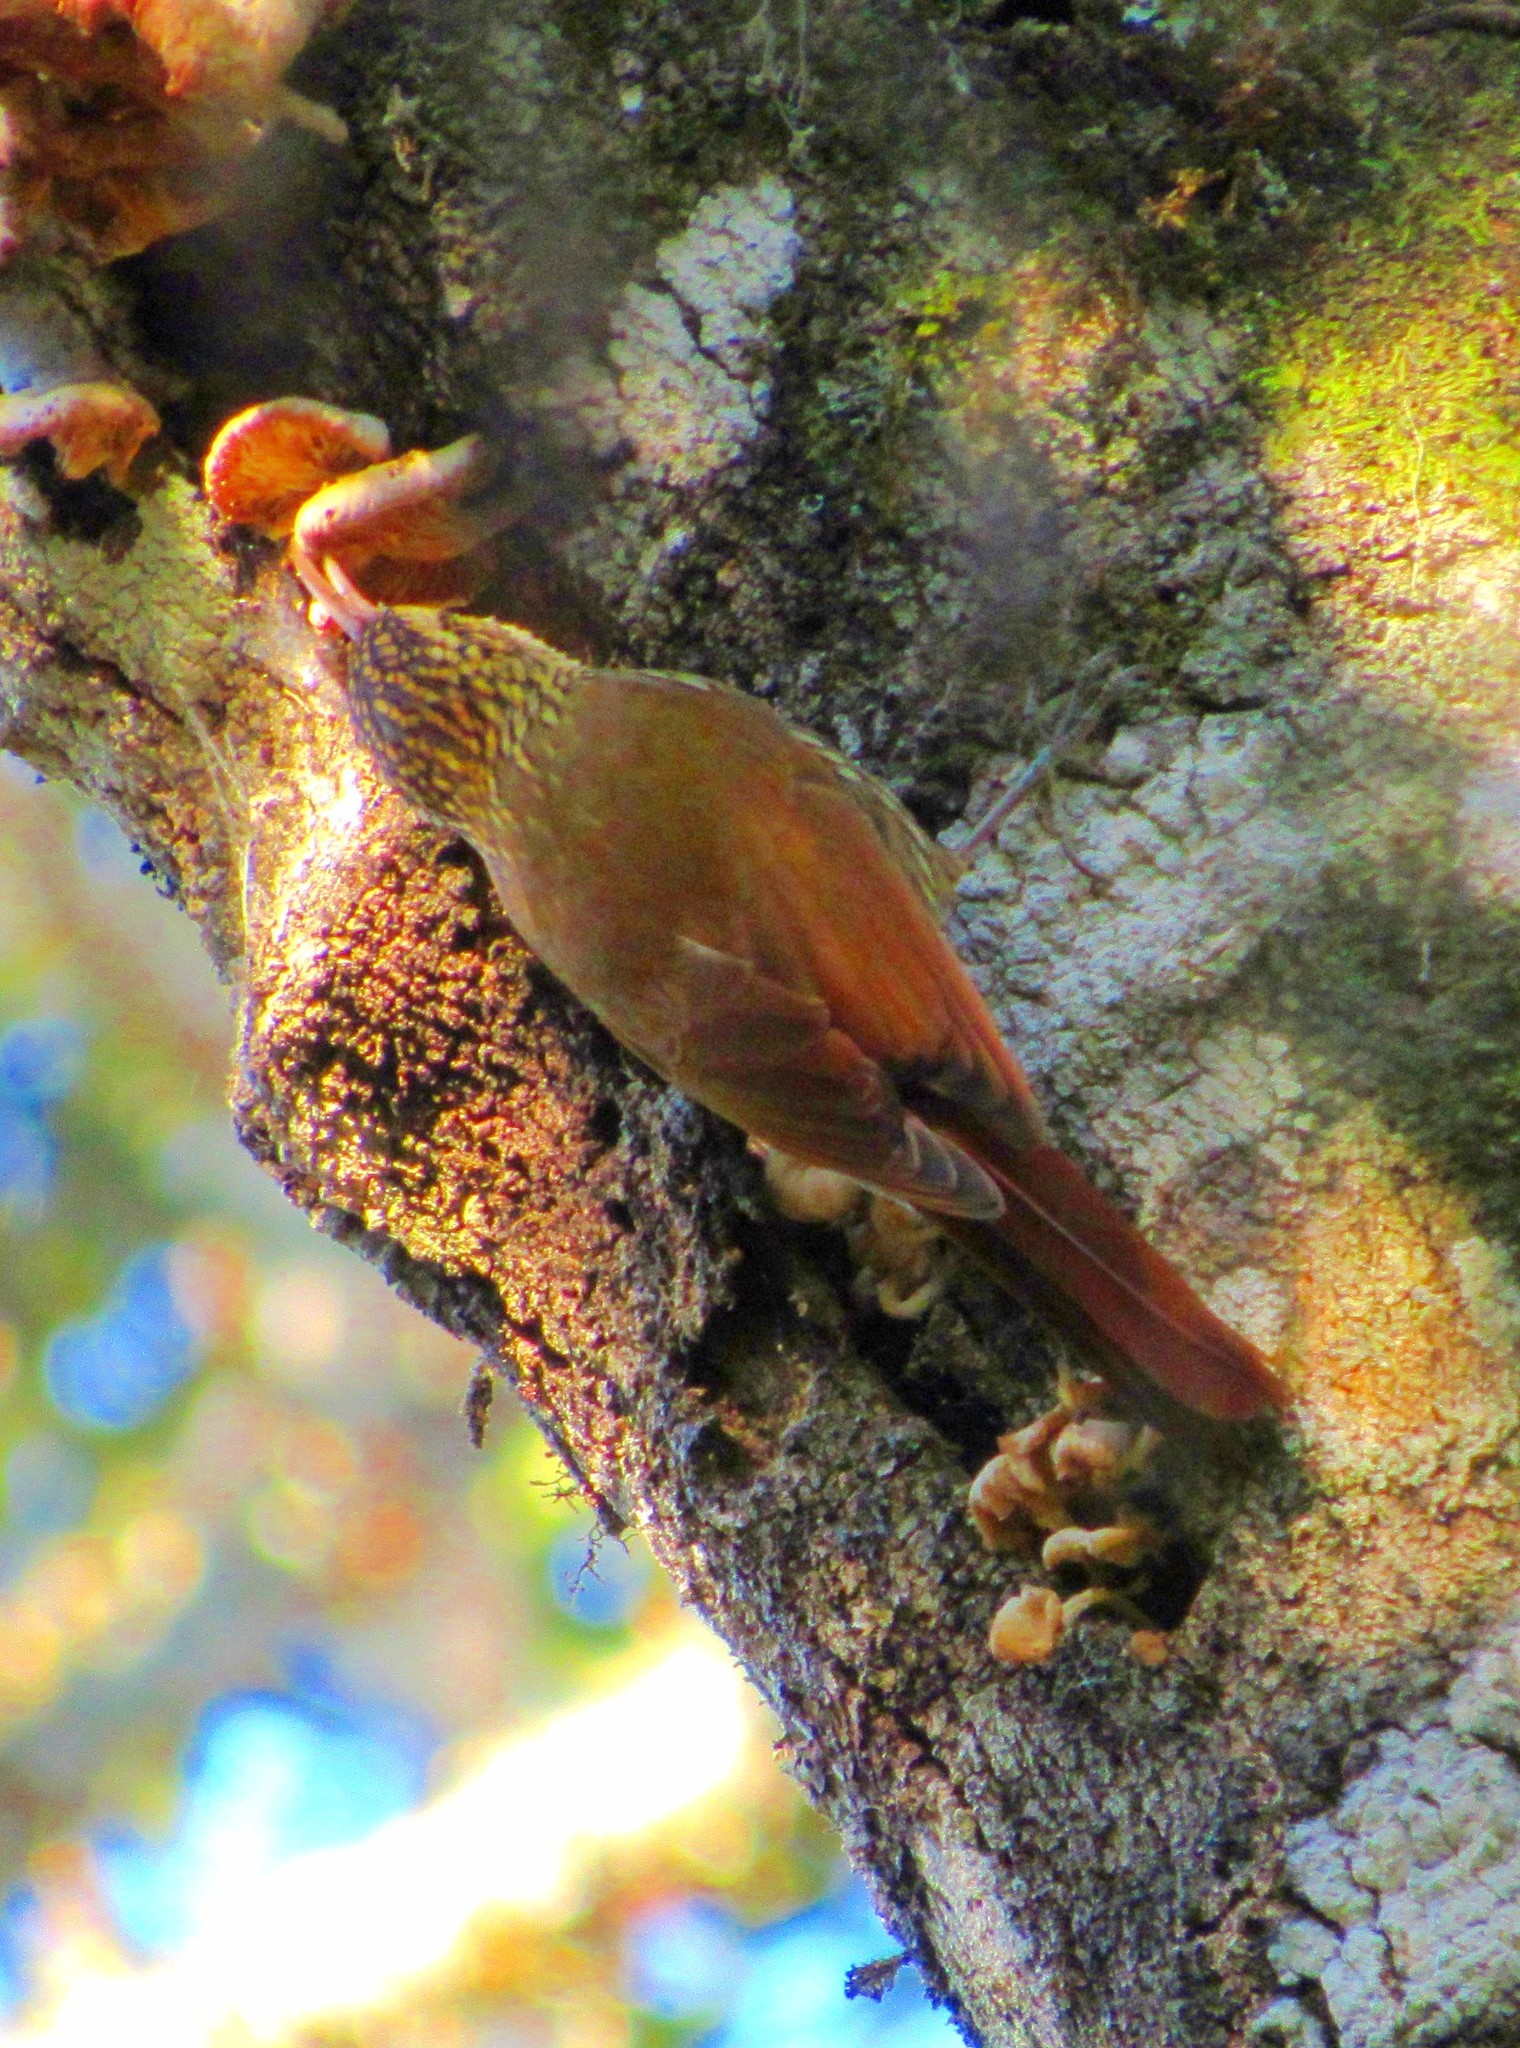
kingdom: Animalia
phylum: Chordata
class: Aves
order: Passeriformes
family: Furnariidae
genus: Lepidocolaptes
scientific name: Lepidocolaptes falcinellus
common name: Scalloped woodcreeper
